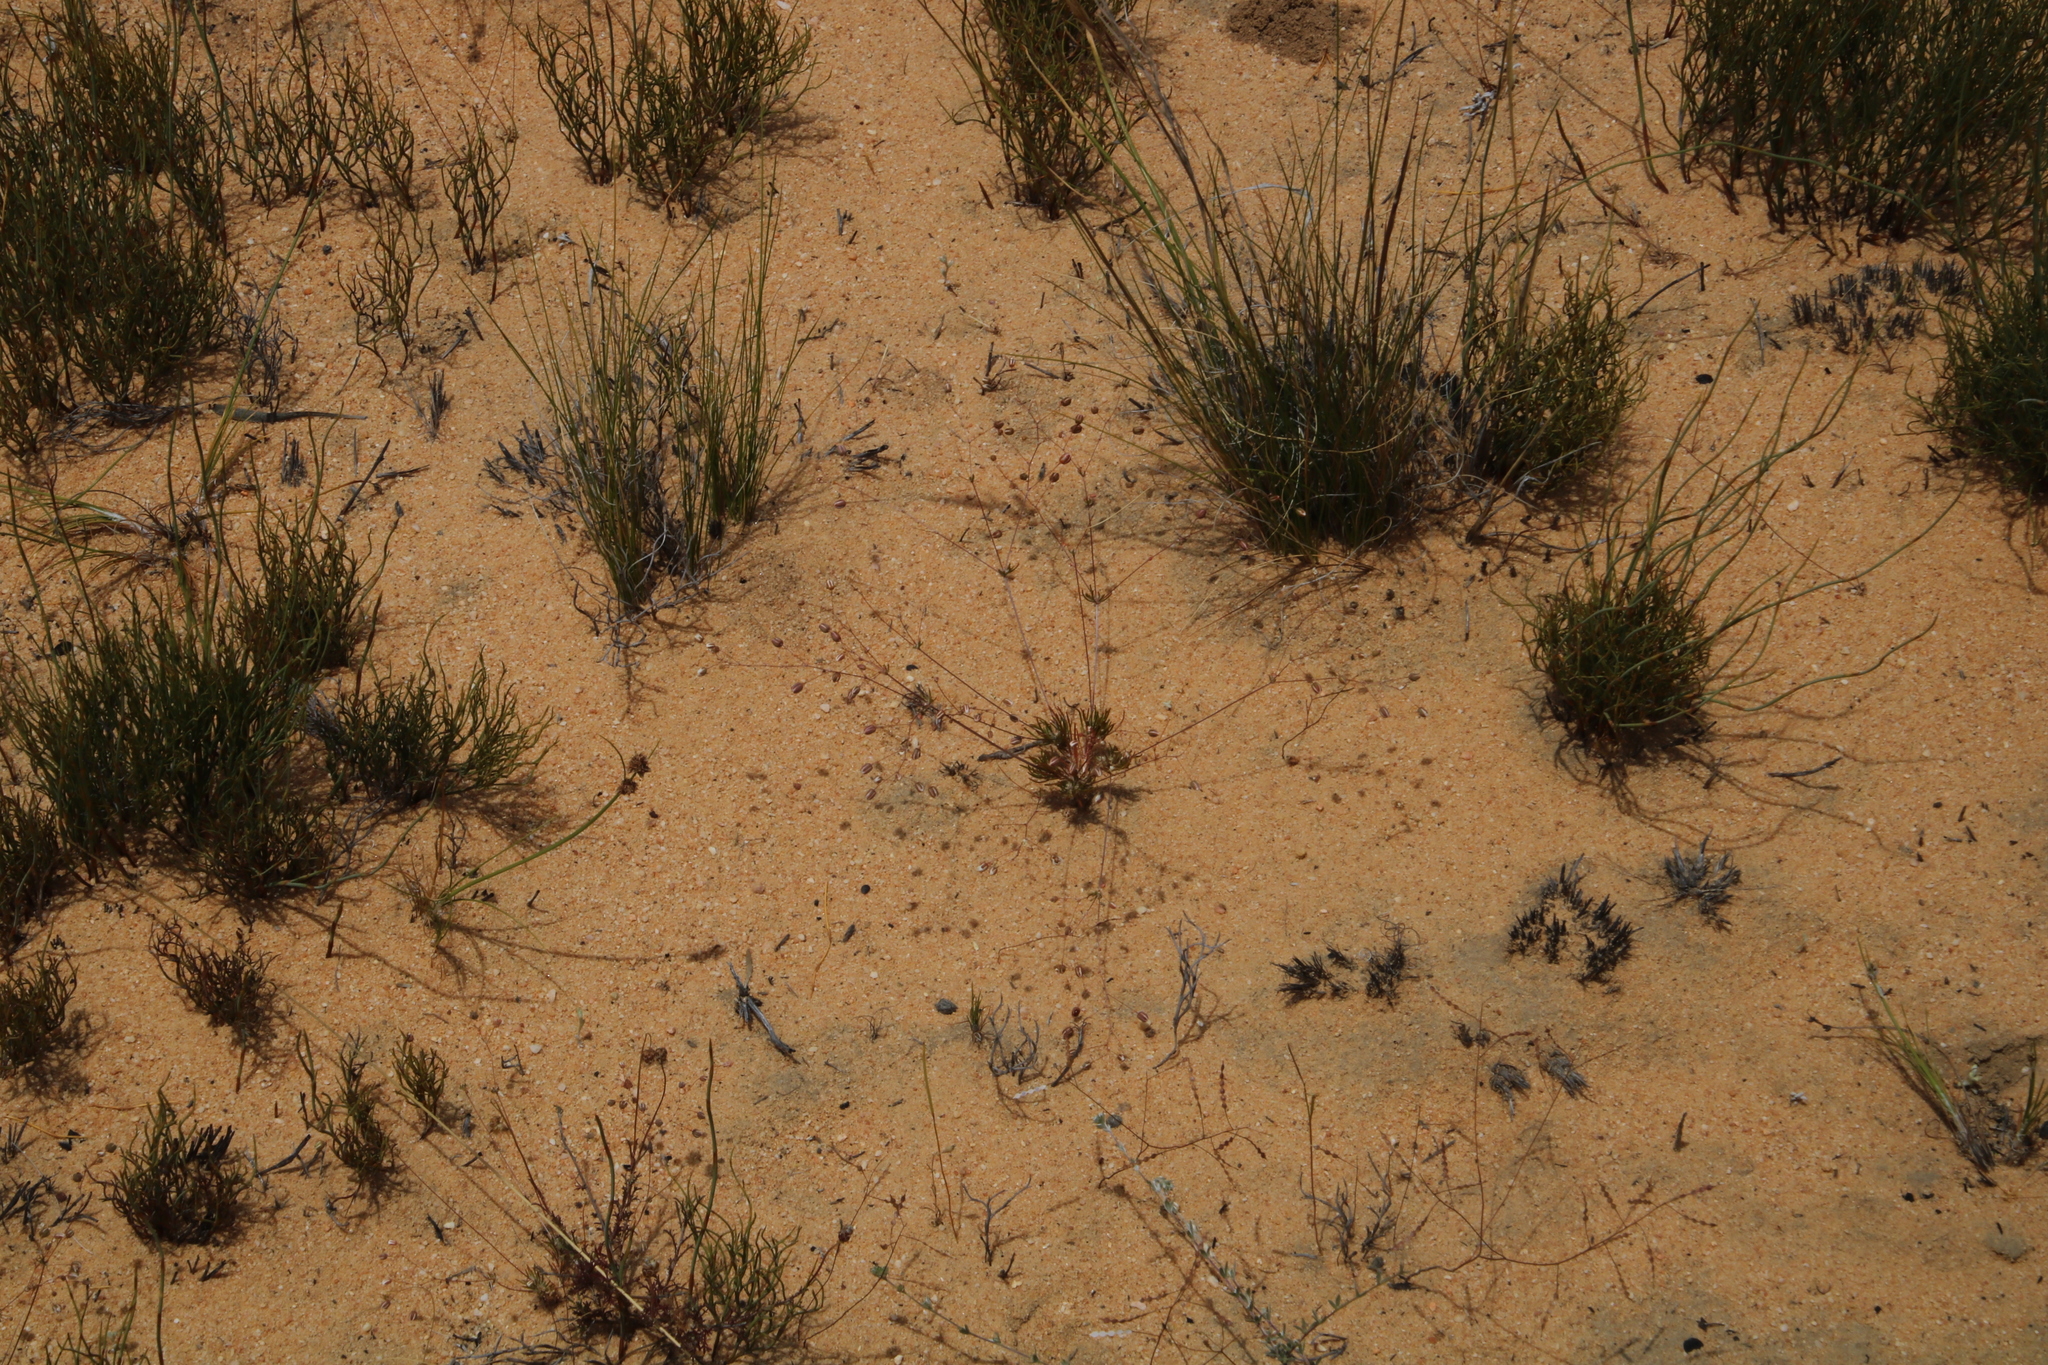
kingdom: Plantae
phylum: Tracheophyta
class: Magnoliopsida
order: Caryophyllales
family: Molluginaceae
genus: Pharnaceum
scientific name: Pharnaceum dichotomum
